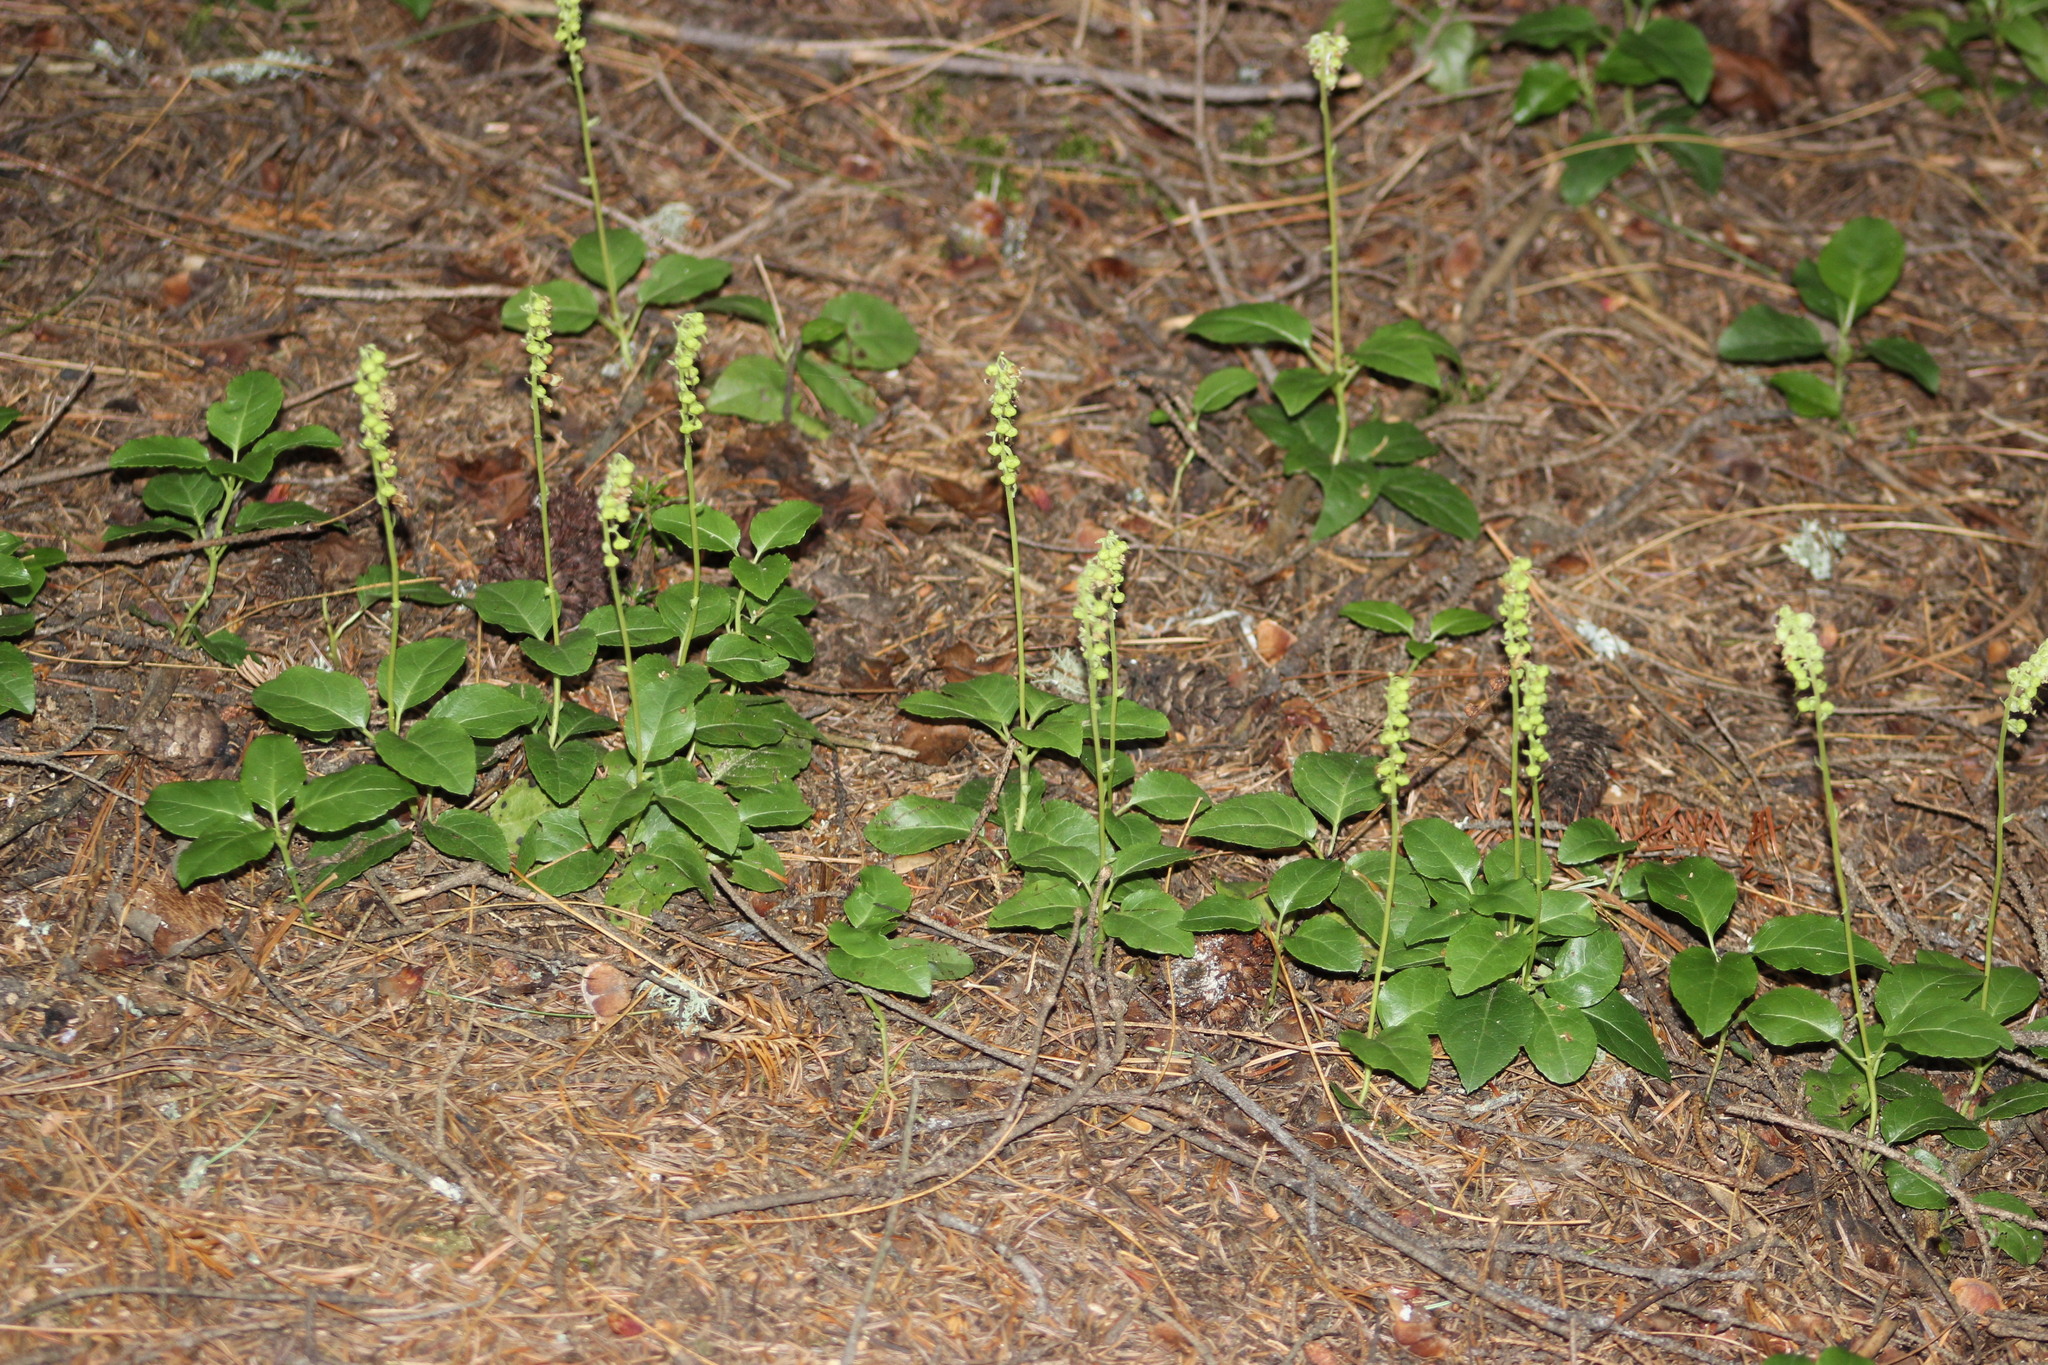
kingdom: Plantae
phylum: Tracheophyta
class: Magnoliopsida
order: Ericales
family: Ericaceae
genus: Orthilia
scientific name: Orthilia secunda
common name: One-sided orthilia
